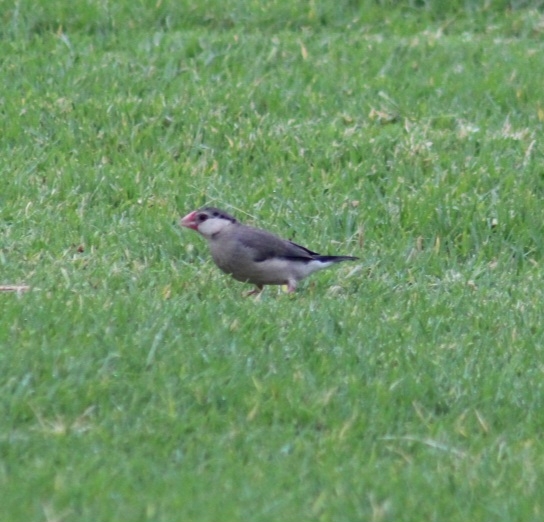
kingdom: Animalia
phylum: Chordata
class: Aves
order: Passeriformes
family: Estrildidae
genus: Lonchura
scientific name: Lonchura oryzivora
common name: Java sparrow
